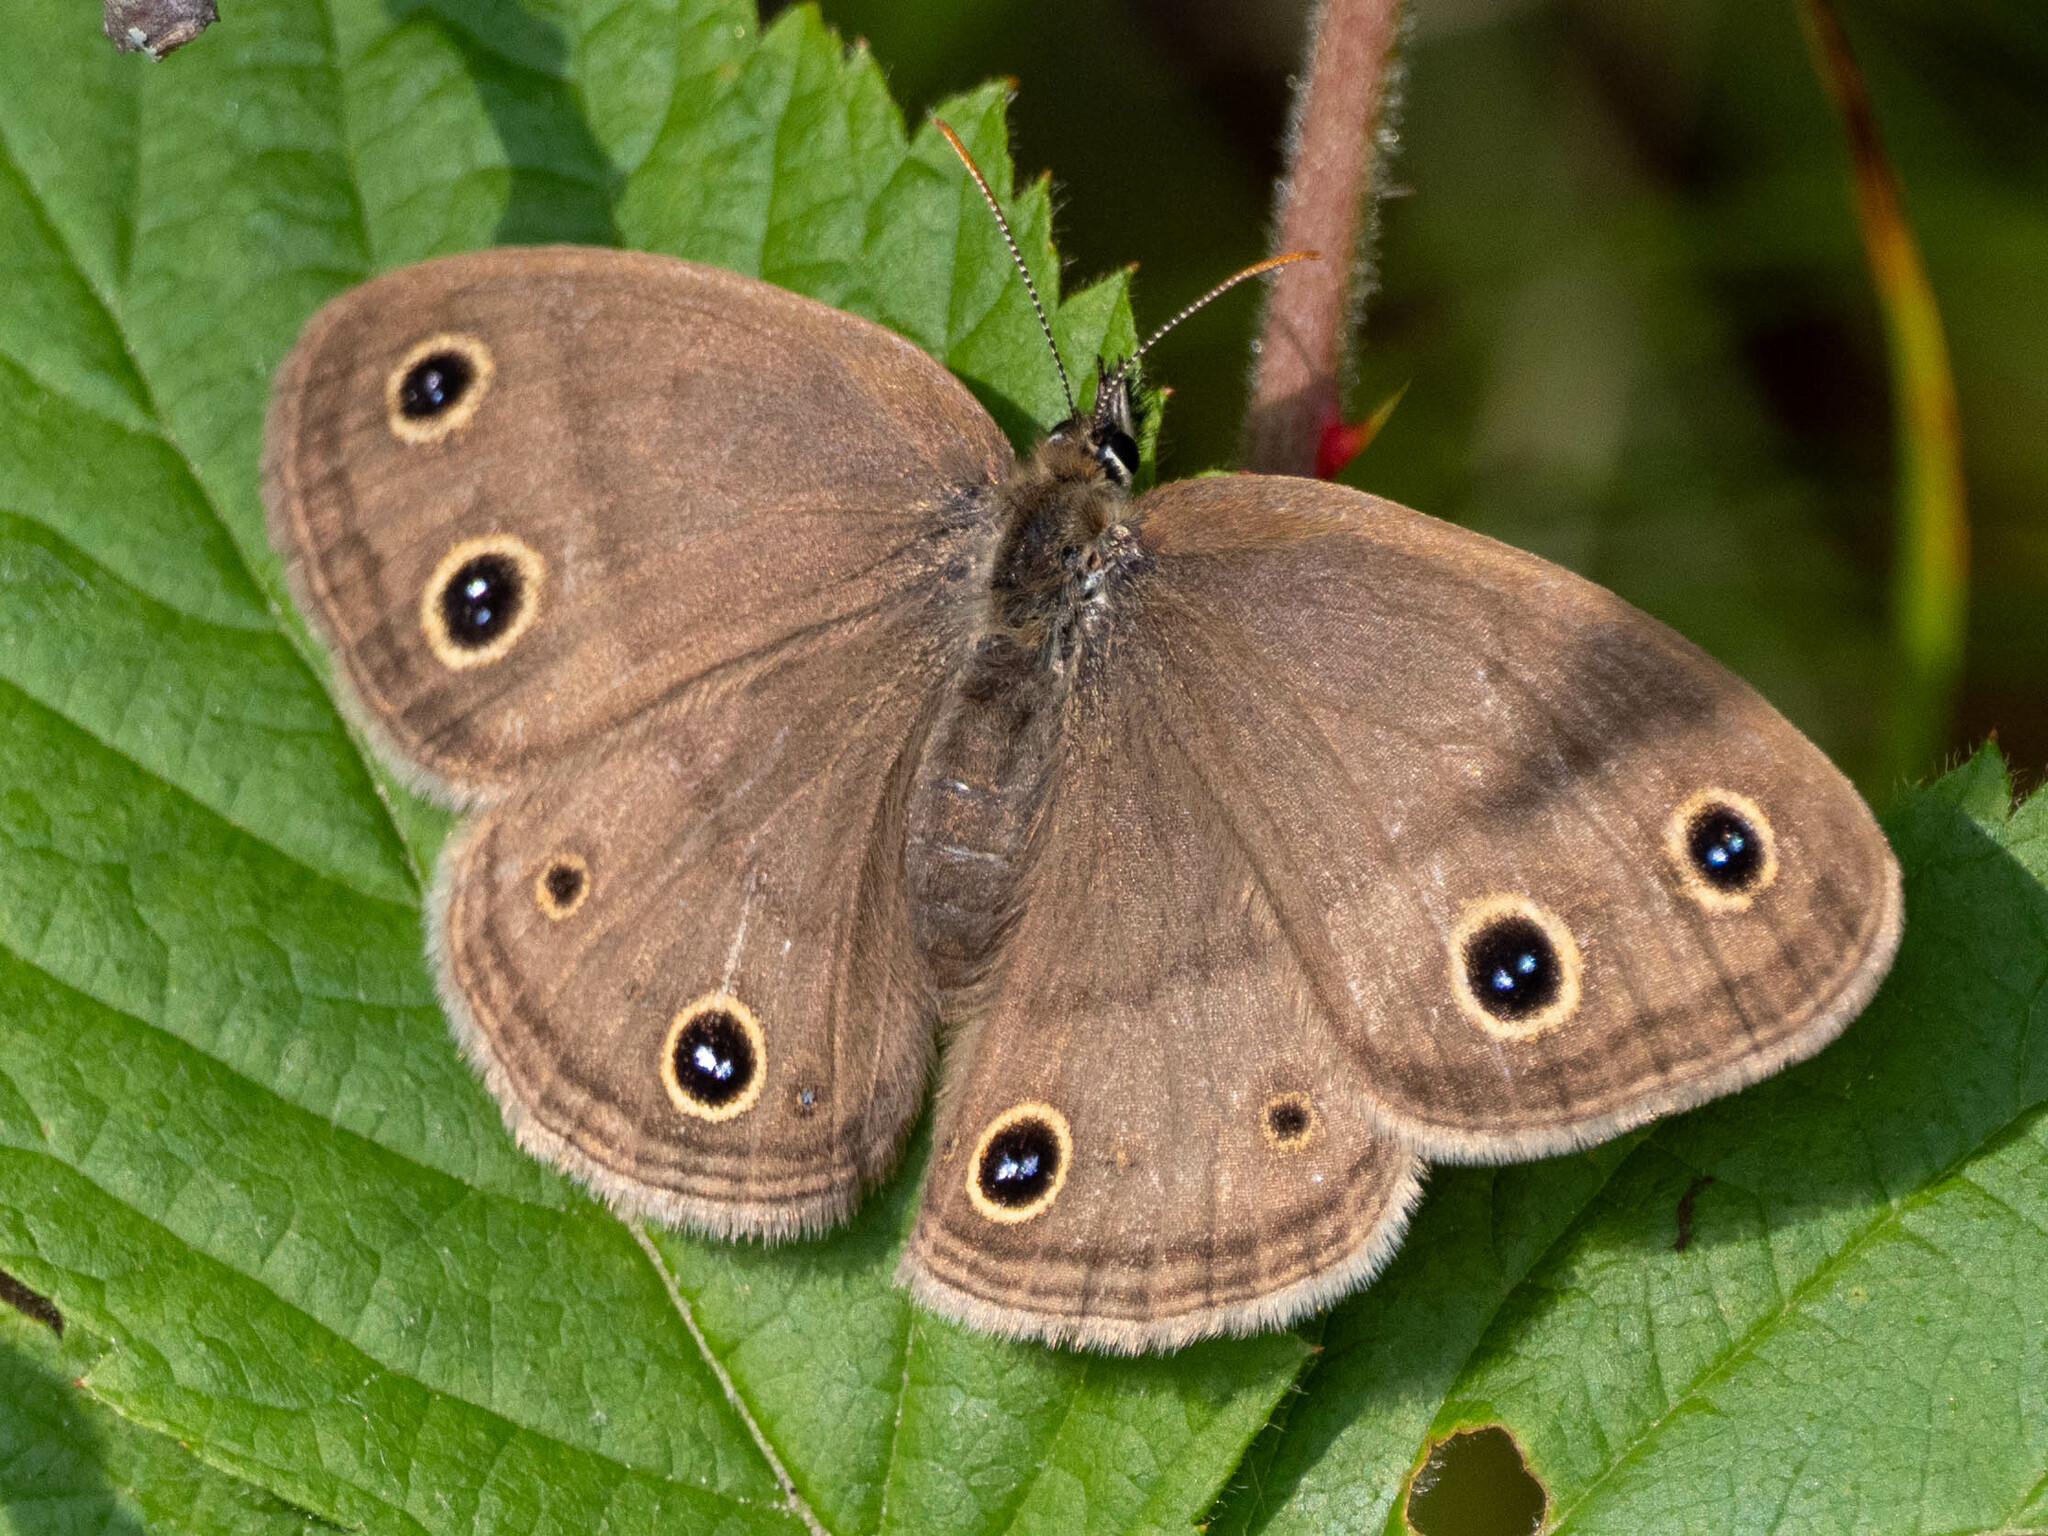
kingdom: Animalia
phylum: Arthropoda
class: Insecta
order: Lepidoptera
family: Nymphalidae
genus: Euptychia
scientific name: Euptychia cymela
